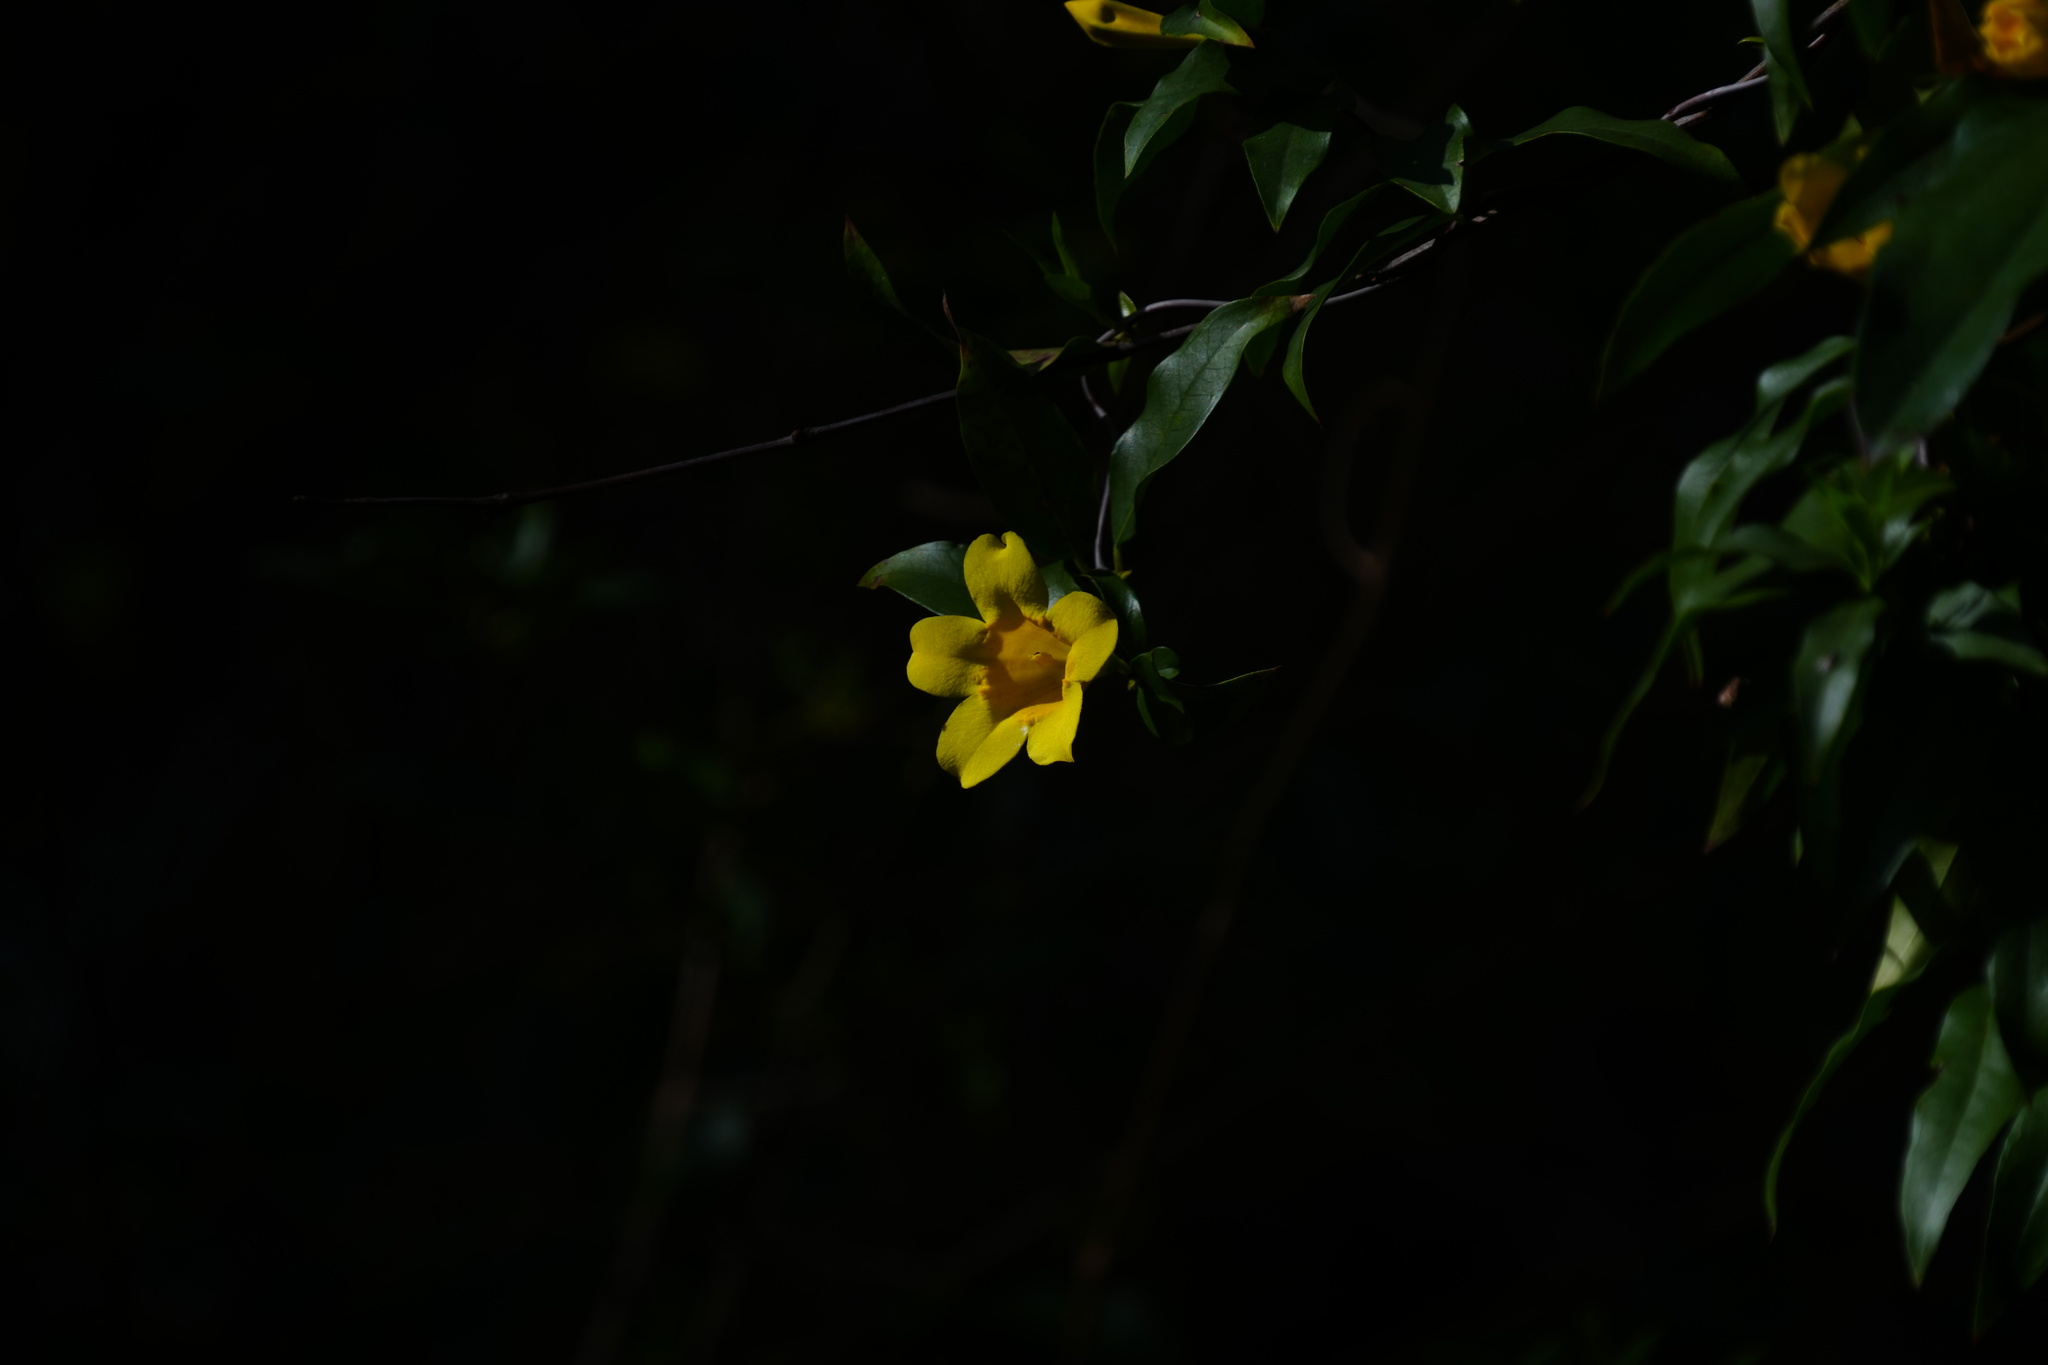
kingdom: Plantae
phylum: Tracheophyta
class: Magnoliopsida
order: Gentianales
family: Gelsemiaceae
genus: Gelsemium
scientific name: Gelsemium sempervirens
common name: Carolina-jasmine
